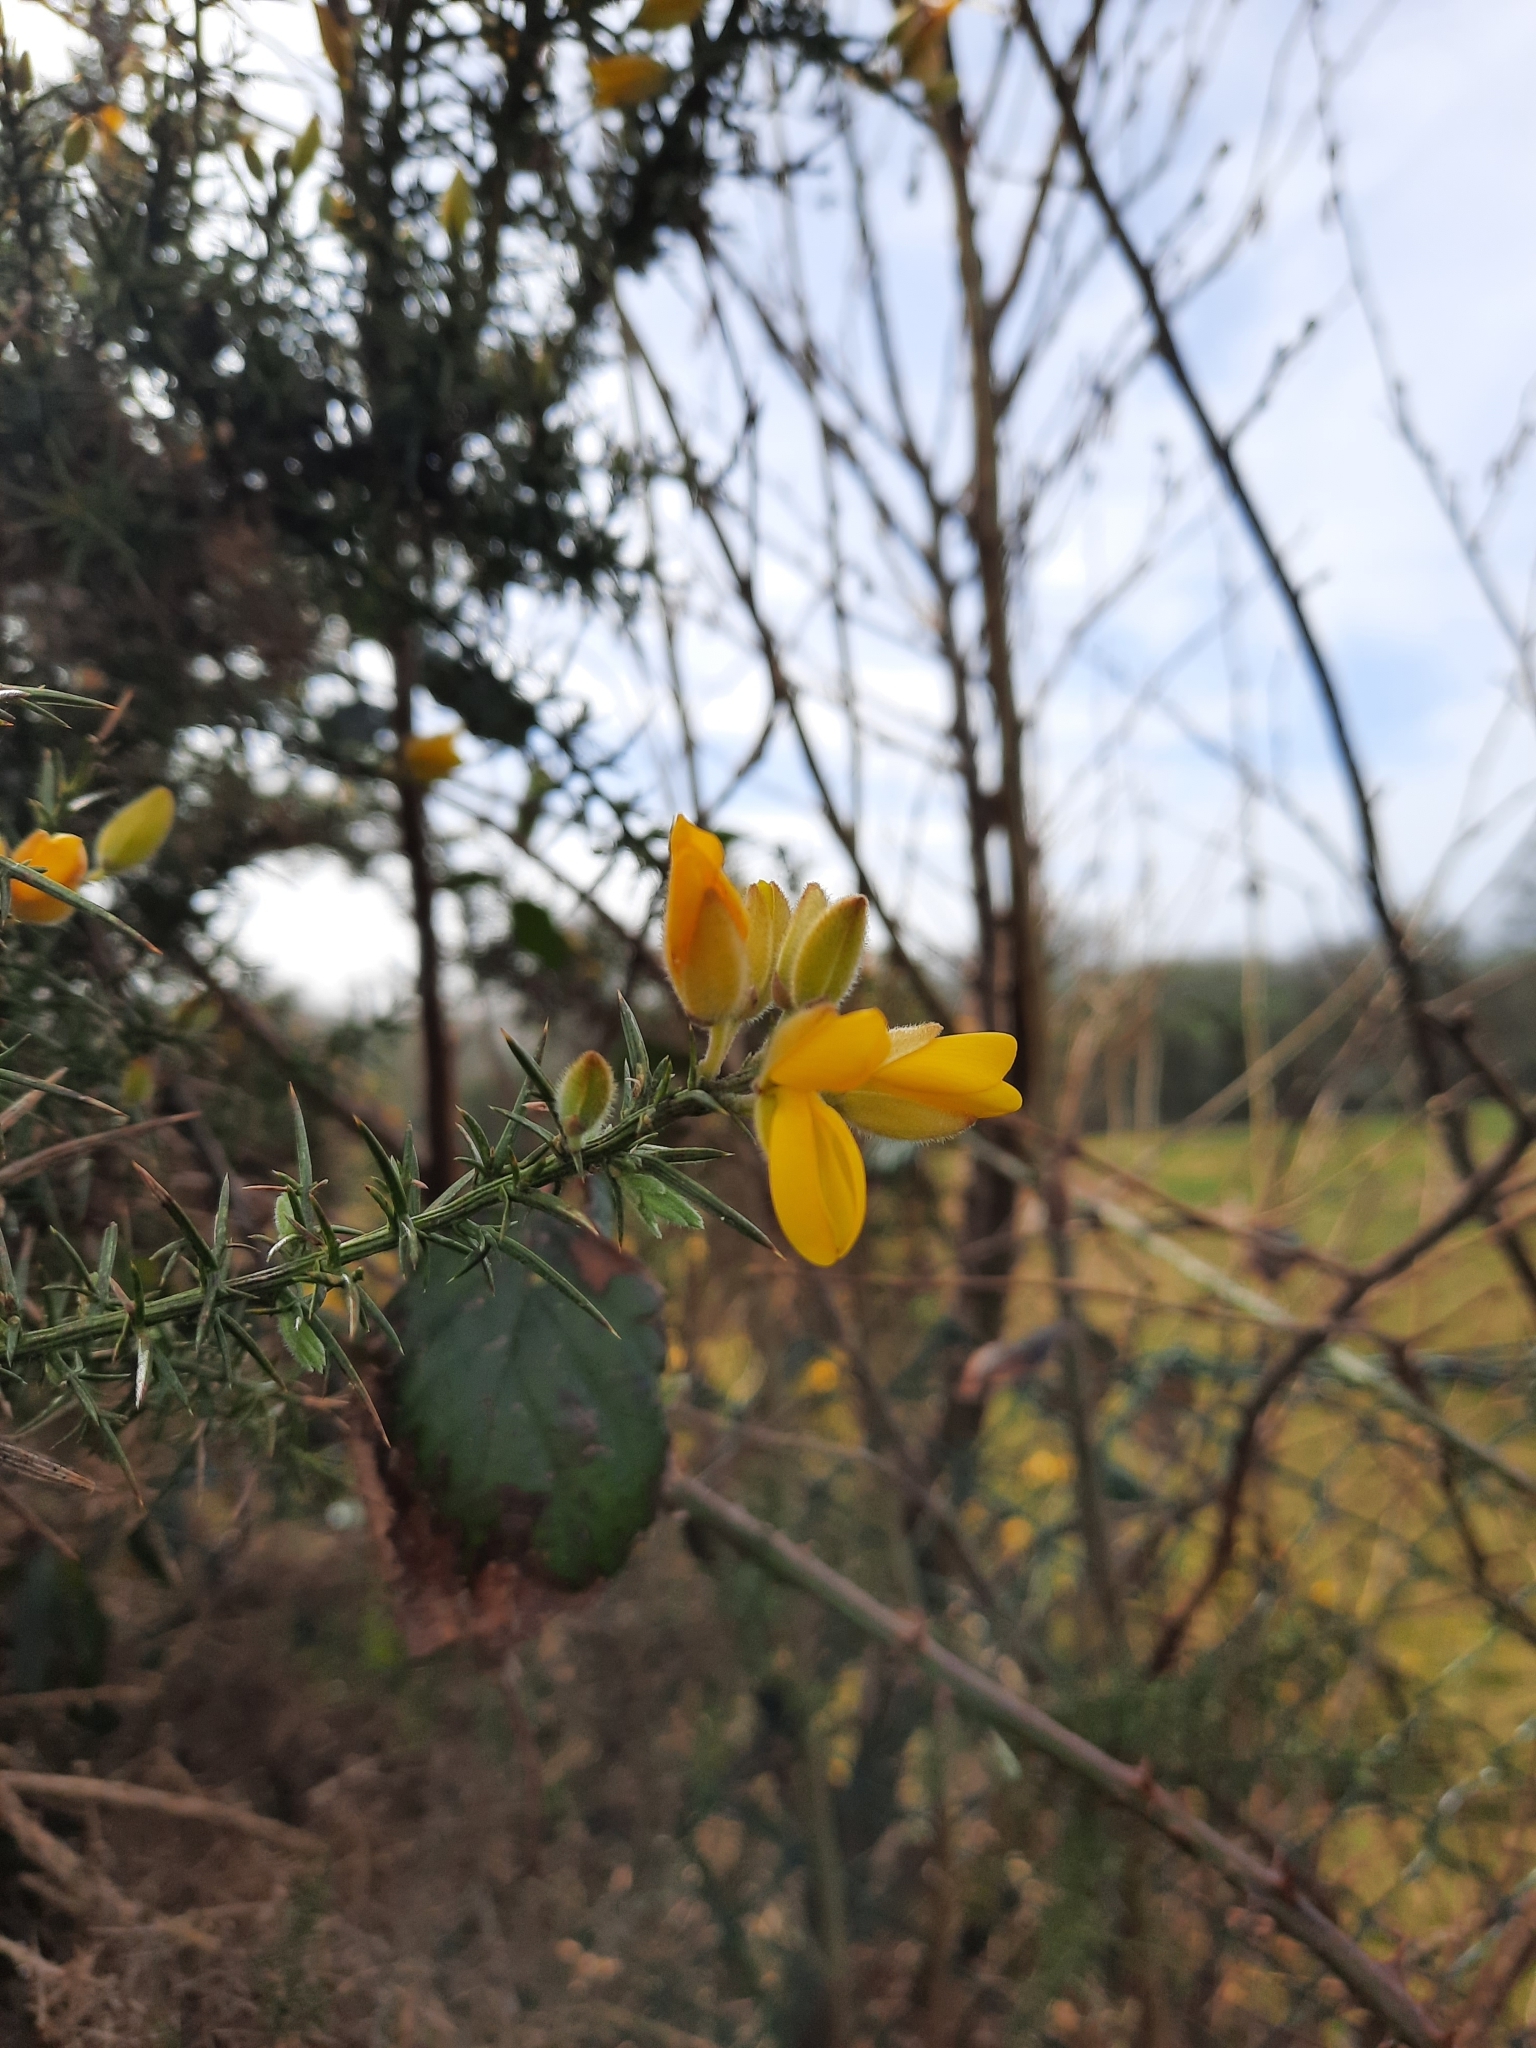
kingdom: Plantae
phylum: Tracheophyta
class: Magnoliopsida
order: Fabales
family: Fabaceae
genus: Ulex
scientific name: Ulex europaeus
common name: Common gorse
